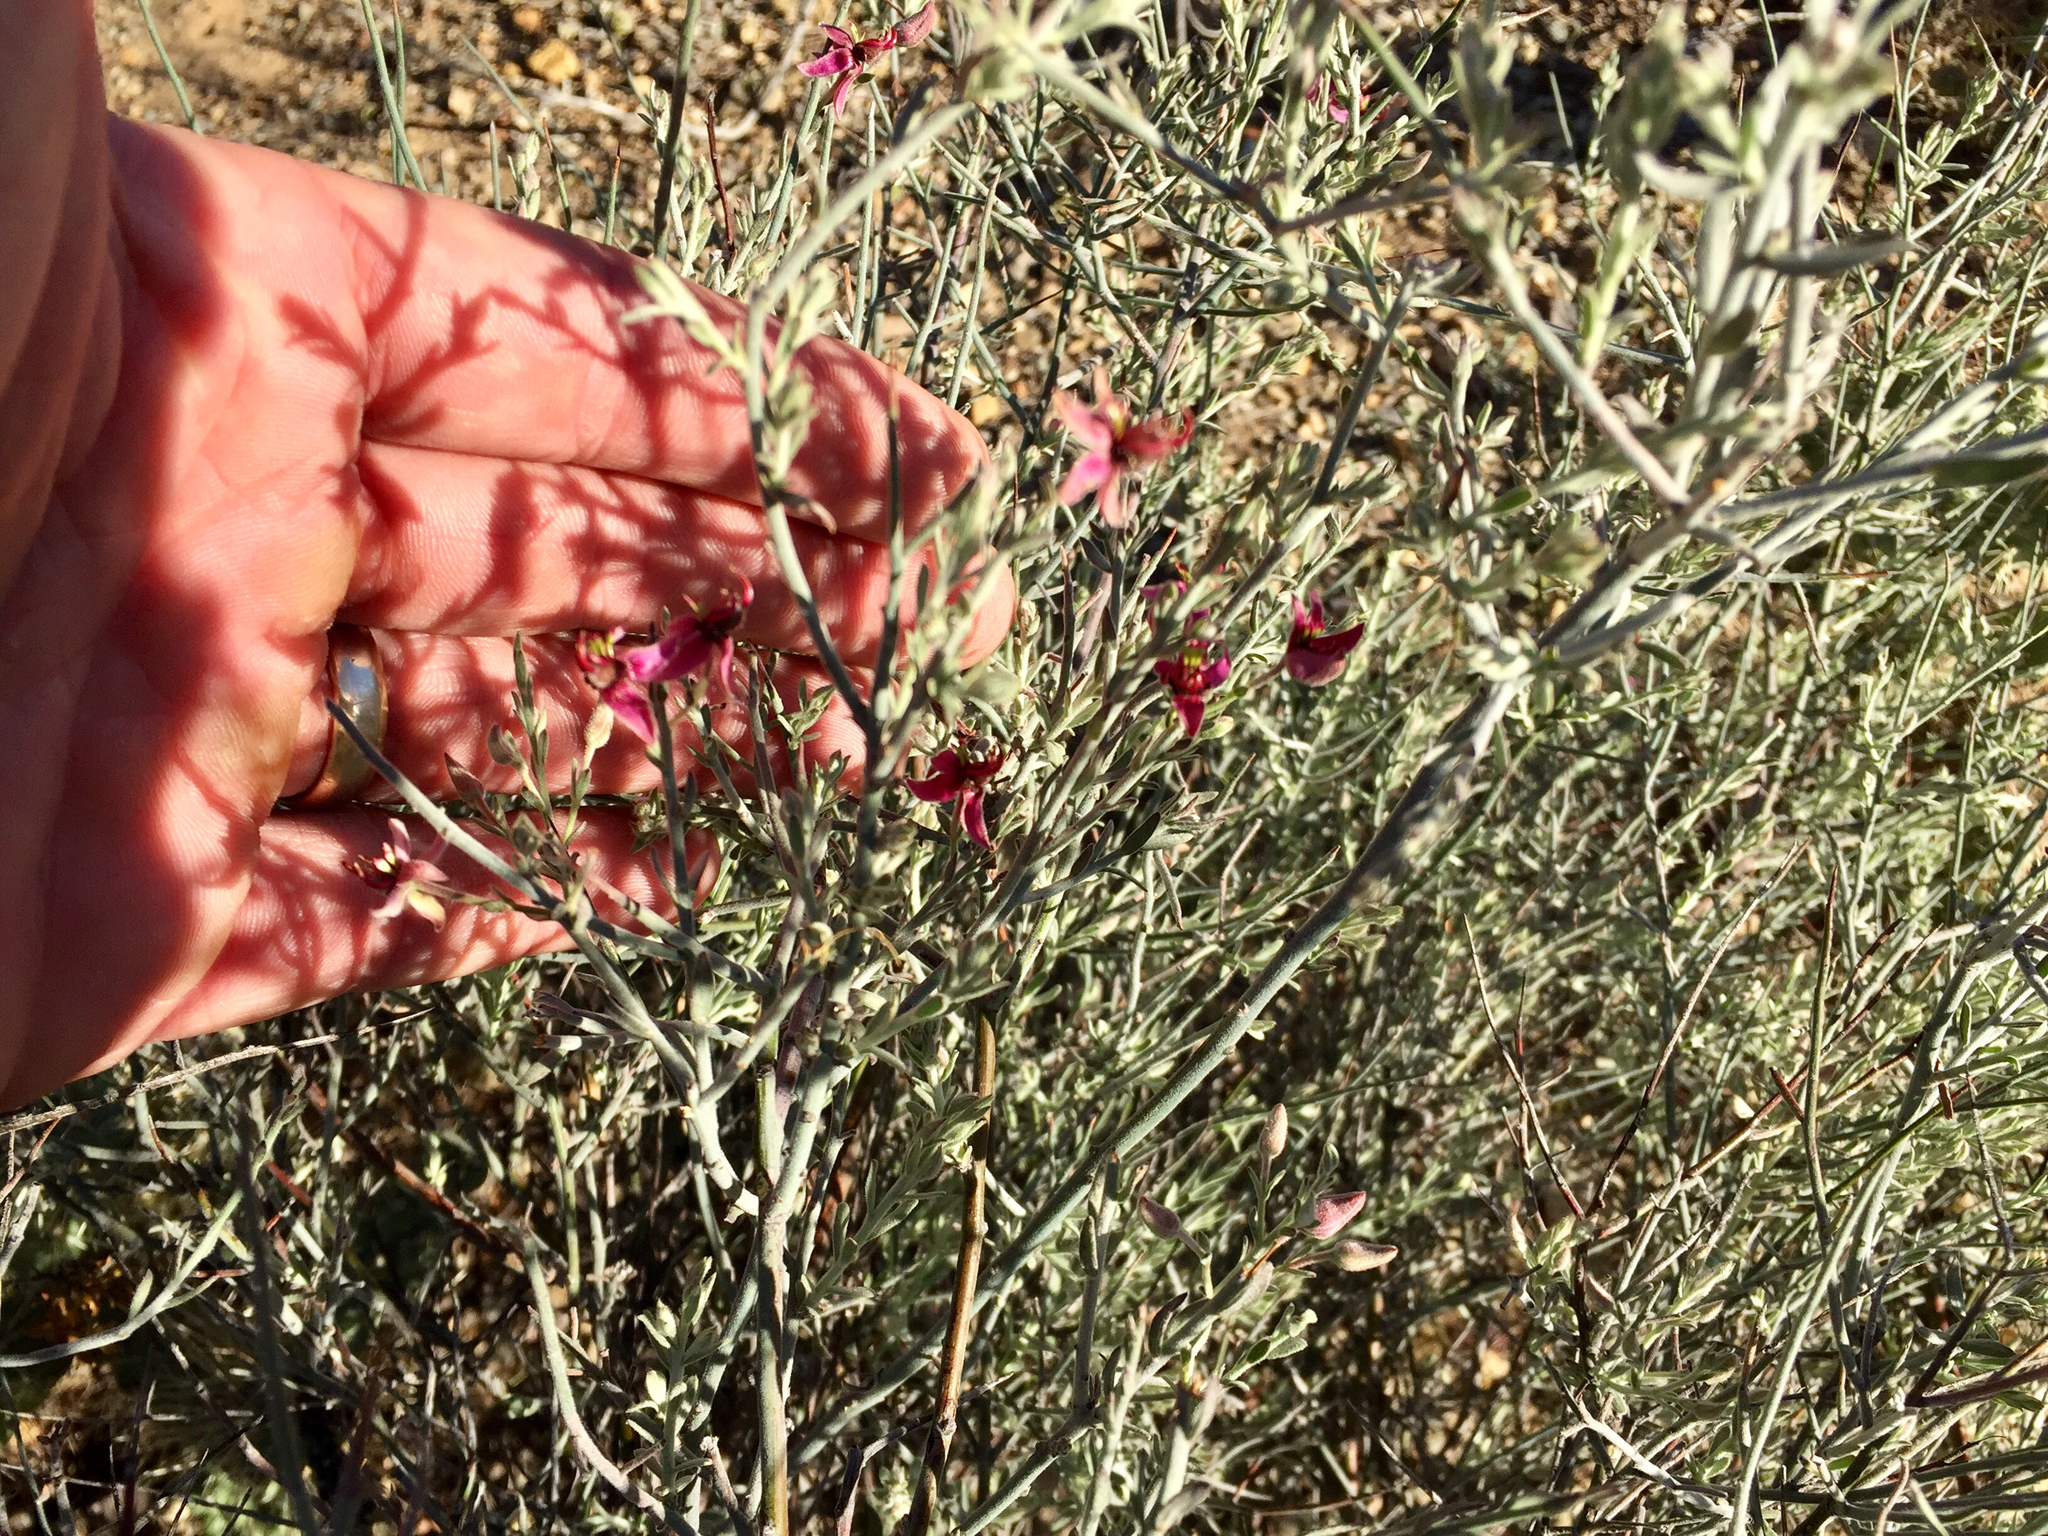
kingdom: Plantae
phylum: Tracheophyta
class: Magnoliopsida
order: Zygophyllales
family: Krameriaceae
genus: Krameria
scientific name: Krameria erecta
